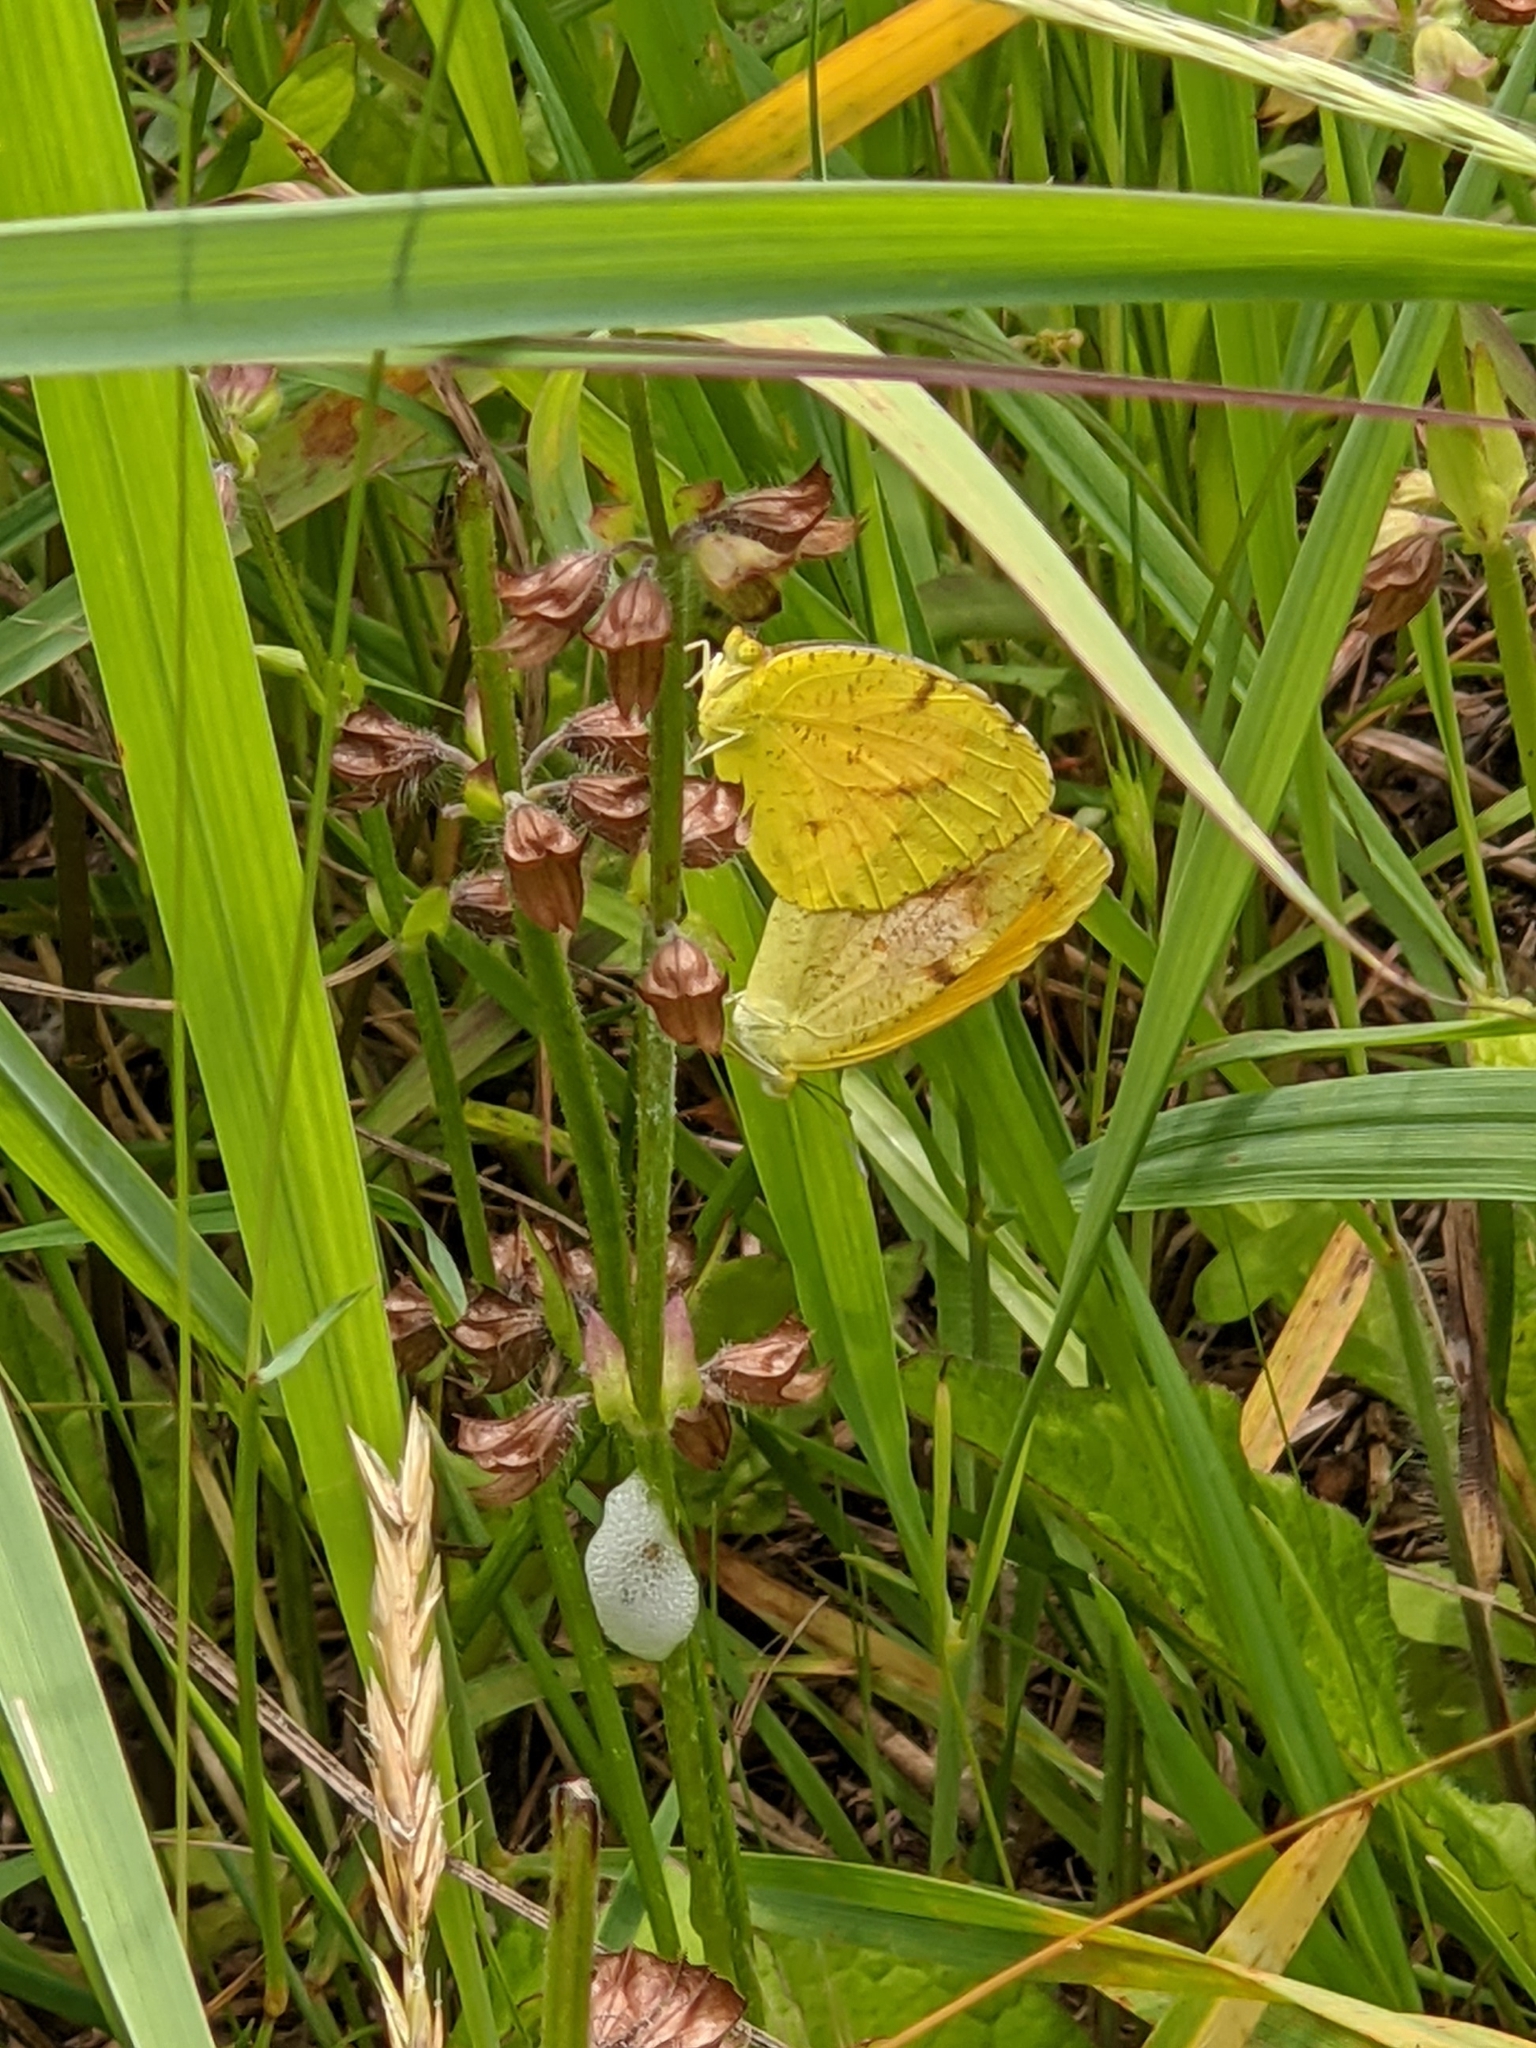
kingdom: Animalia
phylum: Arthropoda
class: Insecta
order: Lepidoptera
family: Pieridae
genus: Abaeis
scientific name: Abaeis nicippe
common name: Sleepy orange
